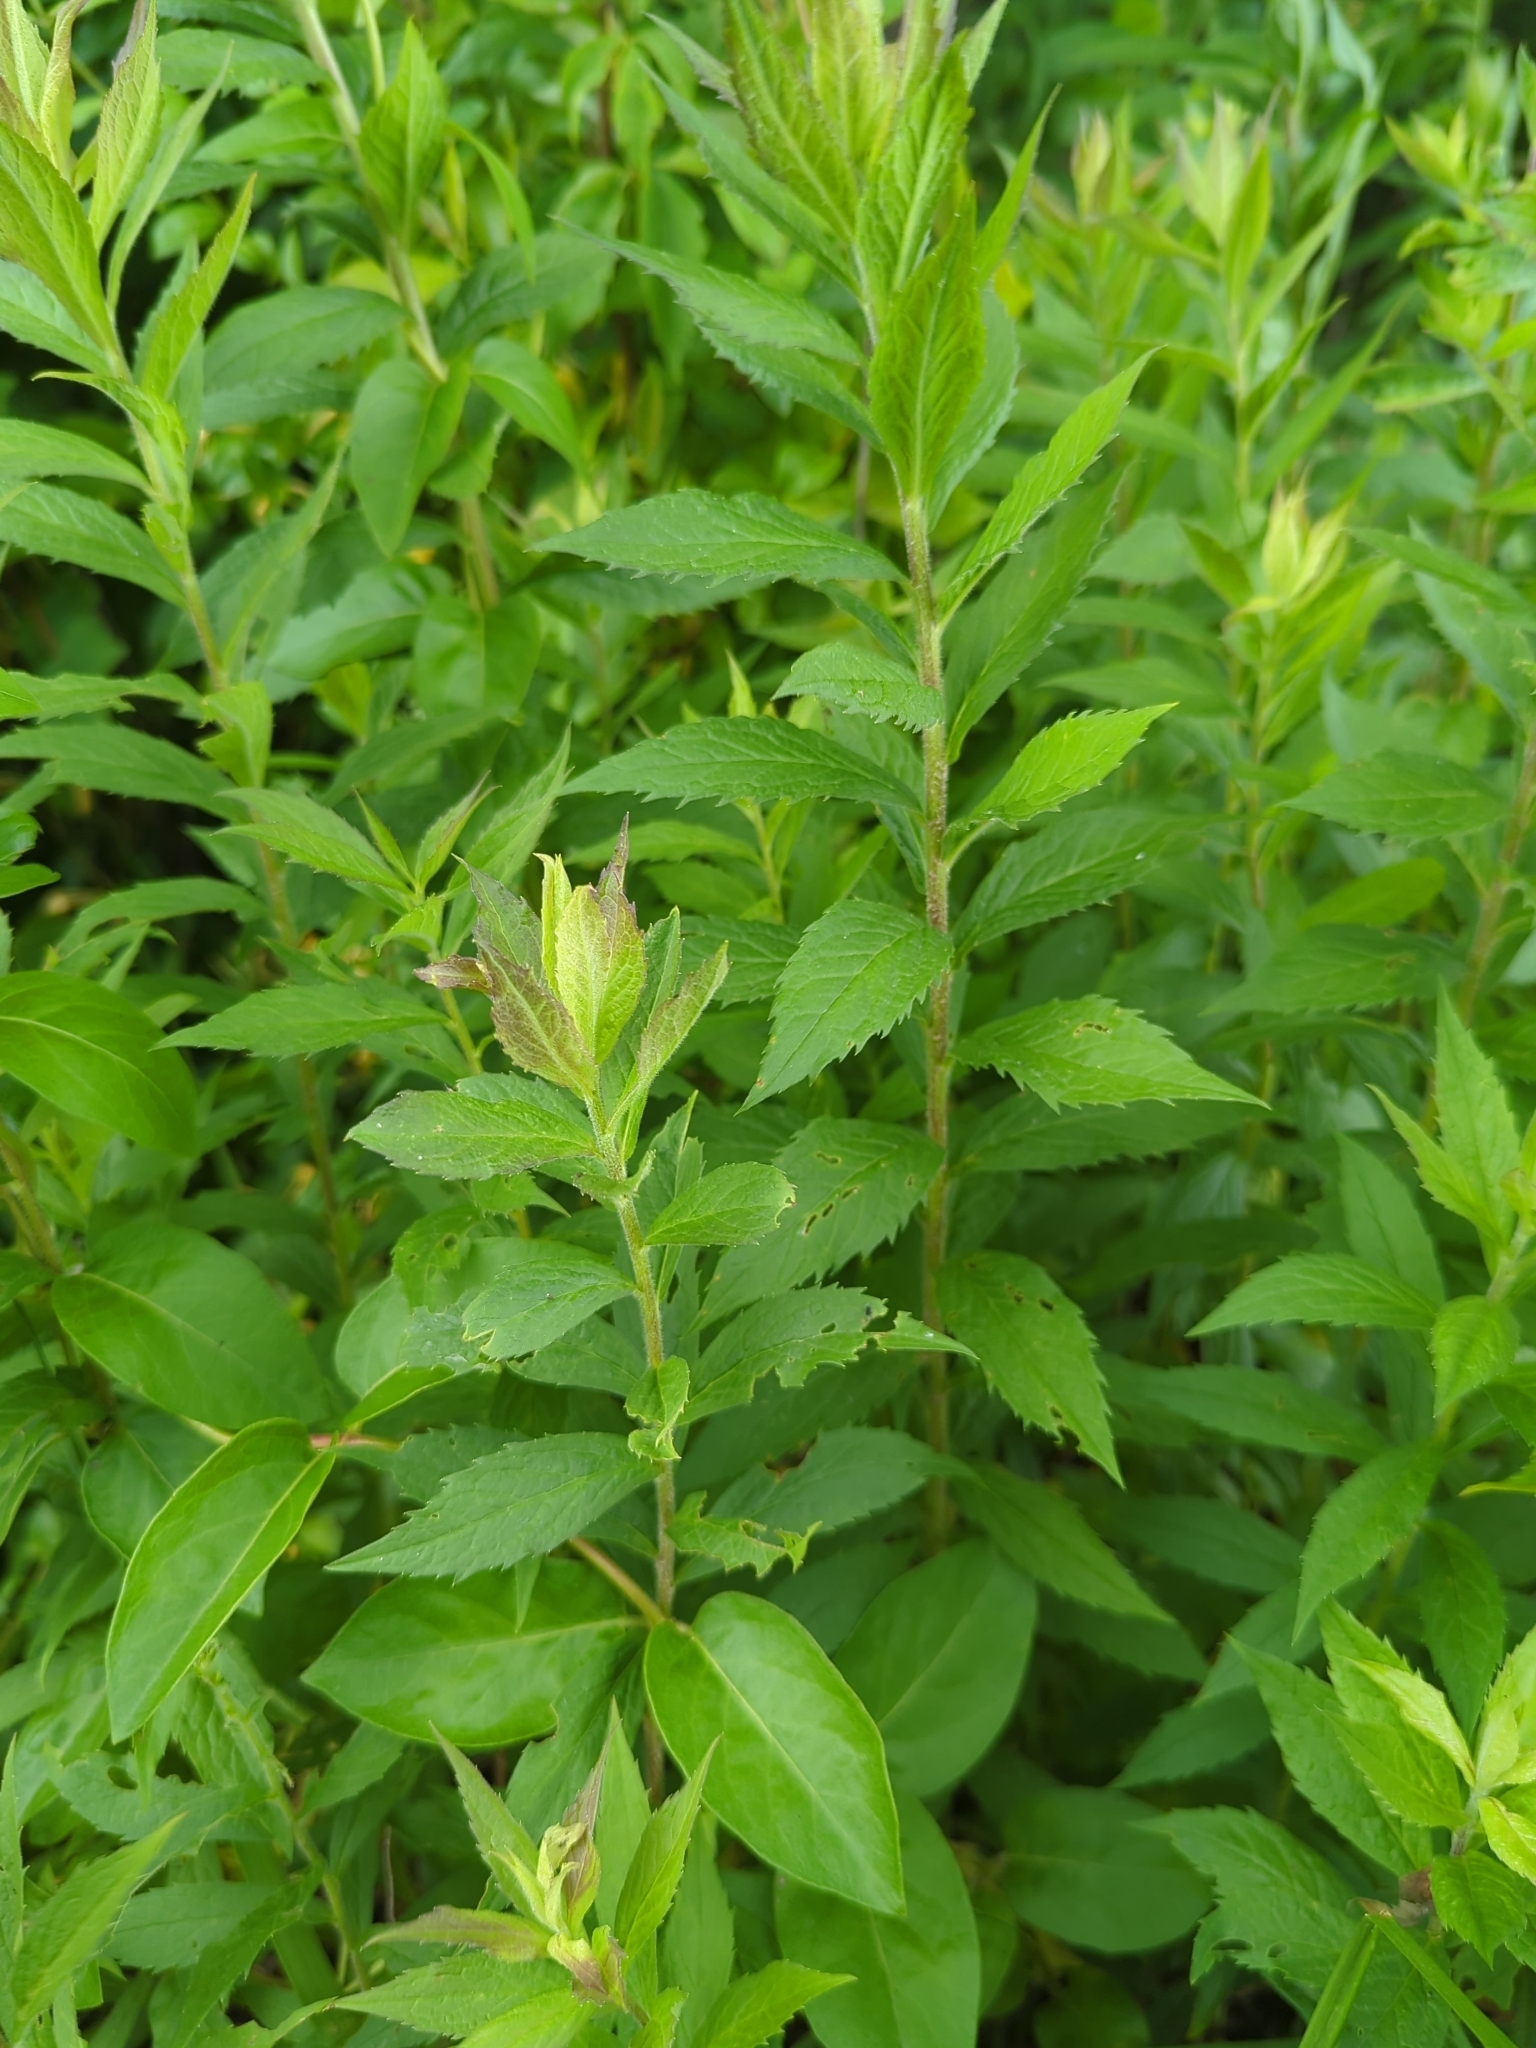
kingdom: Plantae
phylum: Tracheophyta
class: Magnoliopsida
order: Asterales
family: Asteraceae
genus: Solidago
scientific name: Solidago rugosa
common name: Rough-stemmed goldenrod
